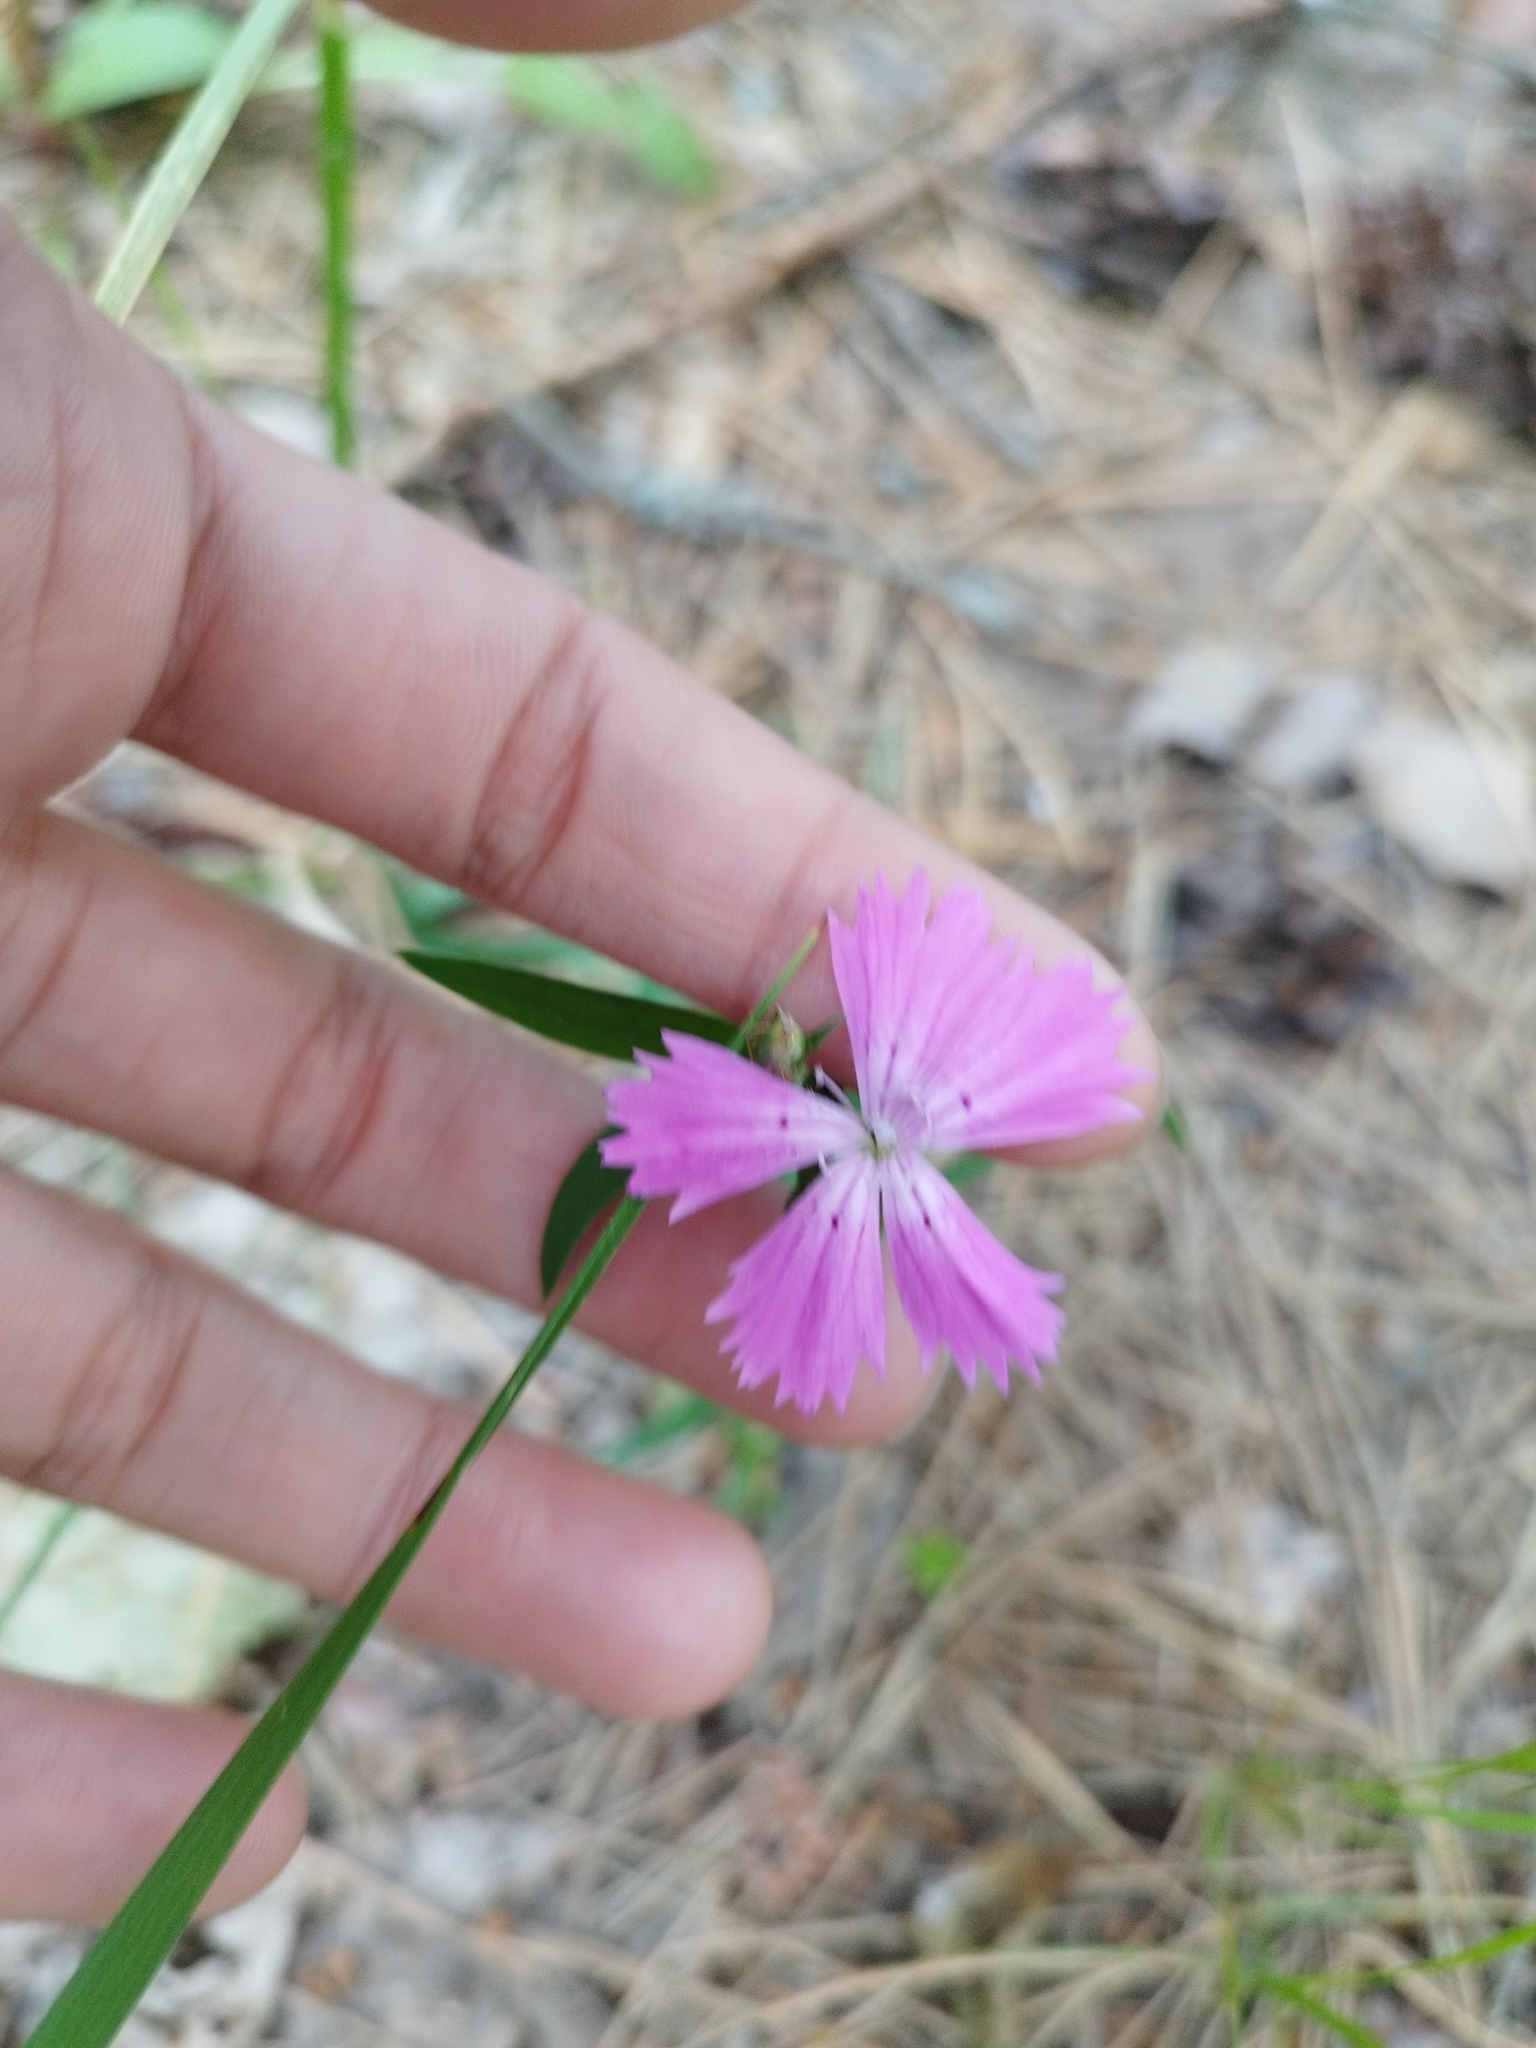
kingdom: Plantae
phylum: Tracheophyta
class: Magnoliopsida
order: Caryophyllales
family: Caryophyllaceae
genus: Dianthus
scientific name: Dianthus chinensis
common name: Rainbow pink
